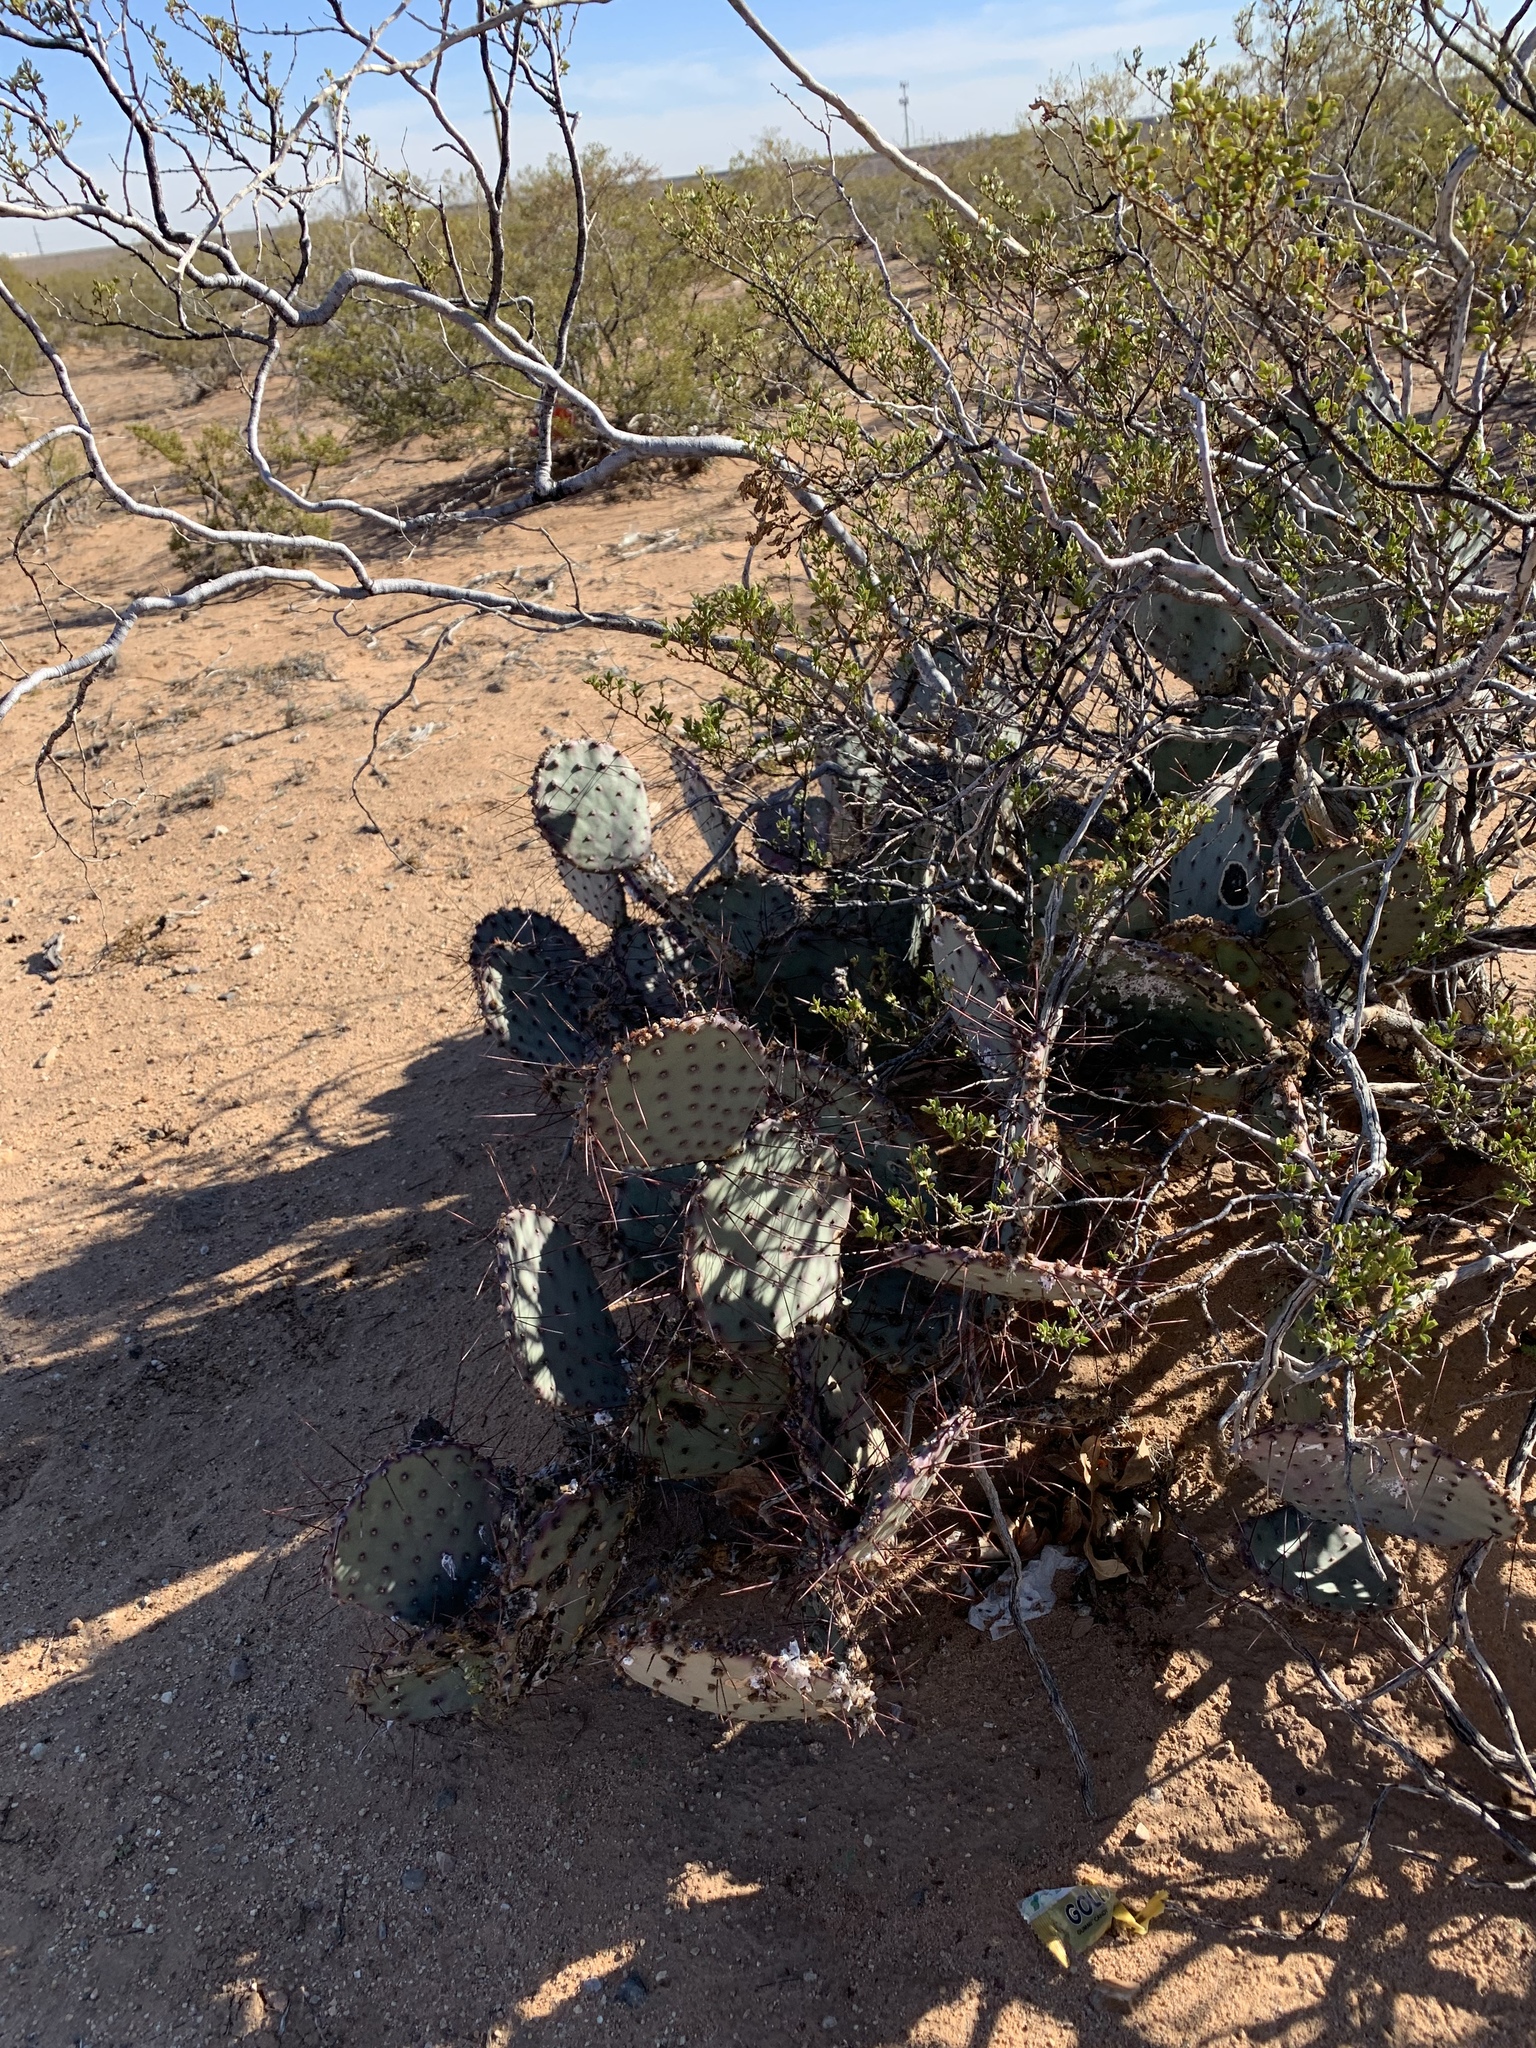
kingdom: Plantae
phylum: Tracheophyta
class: Magnoliopsida
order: Caryophyllales
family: Cactaceae
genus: Opuntia
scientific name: Opuntia macrocentra
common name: Purple prickly-pear
